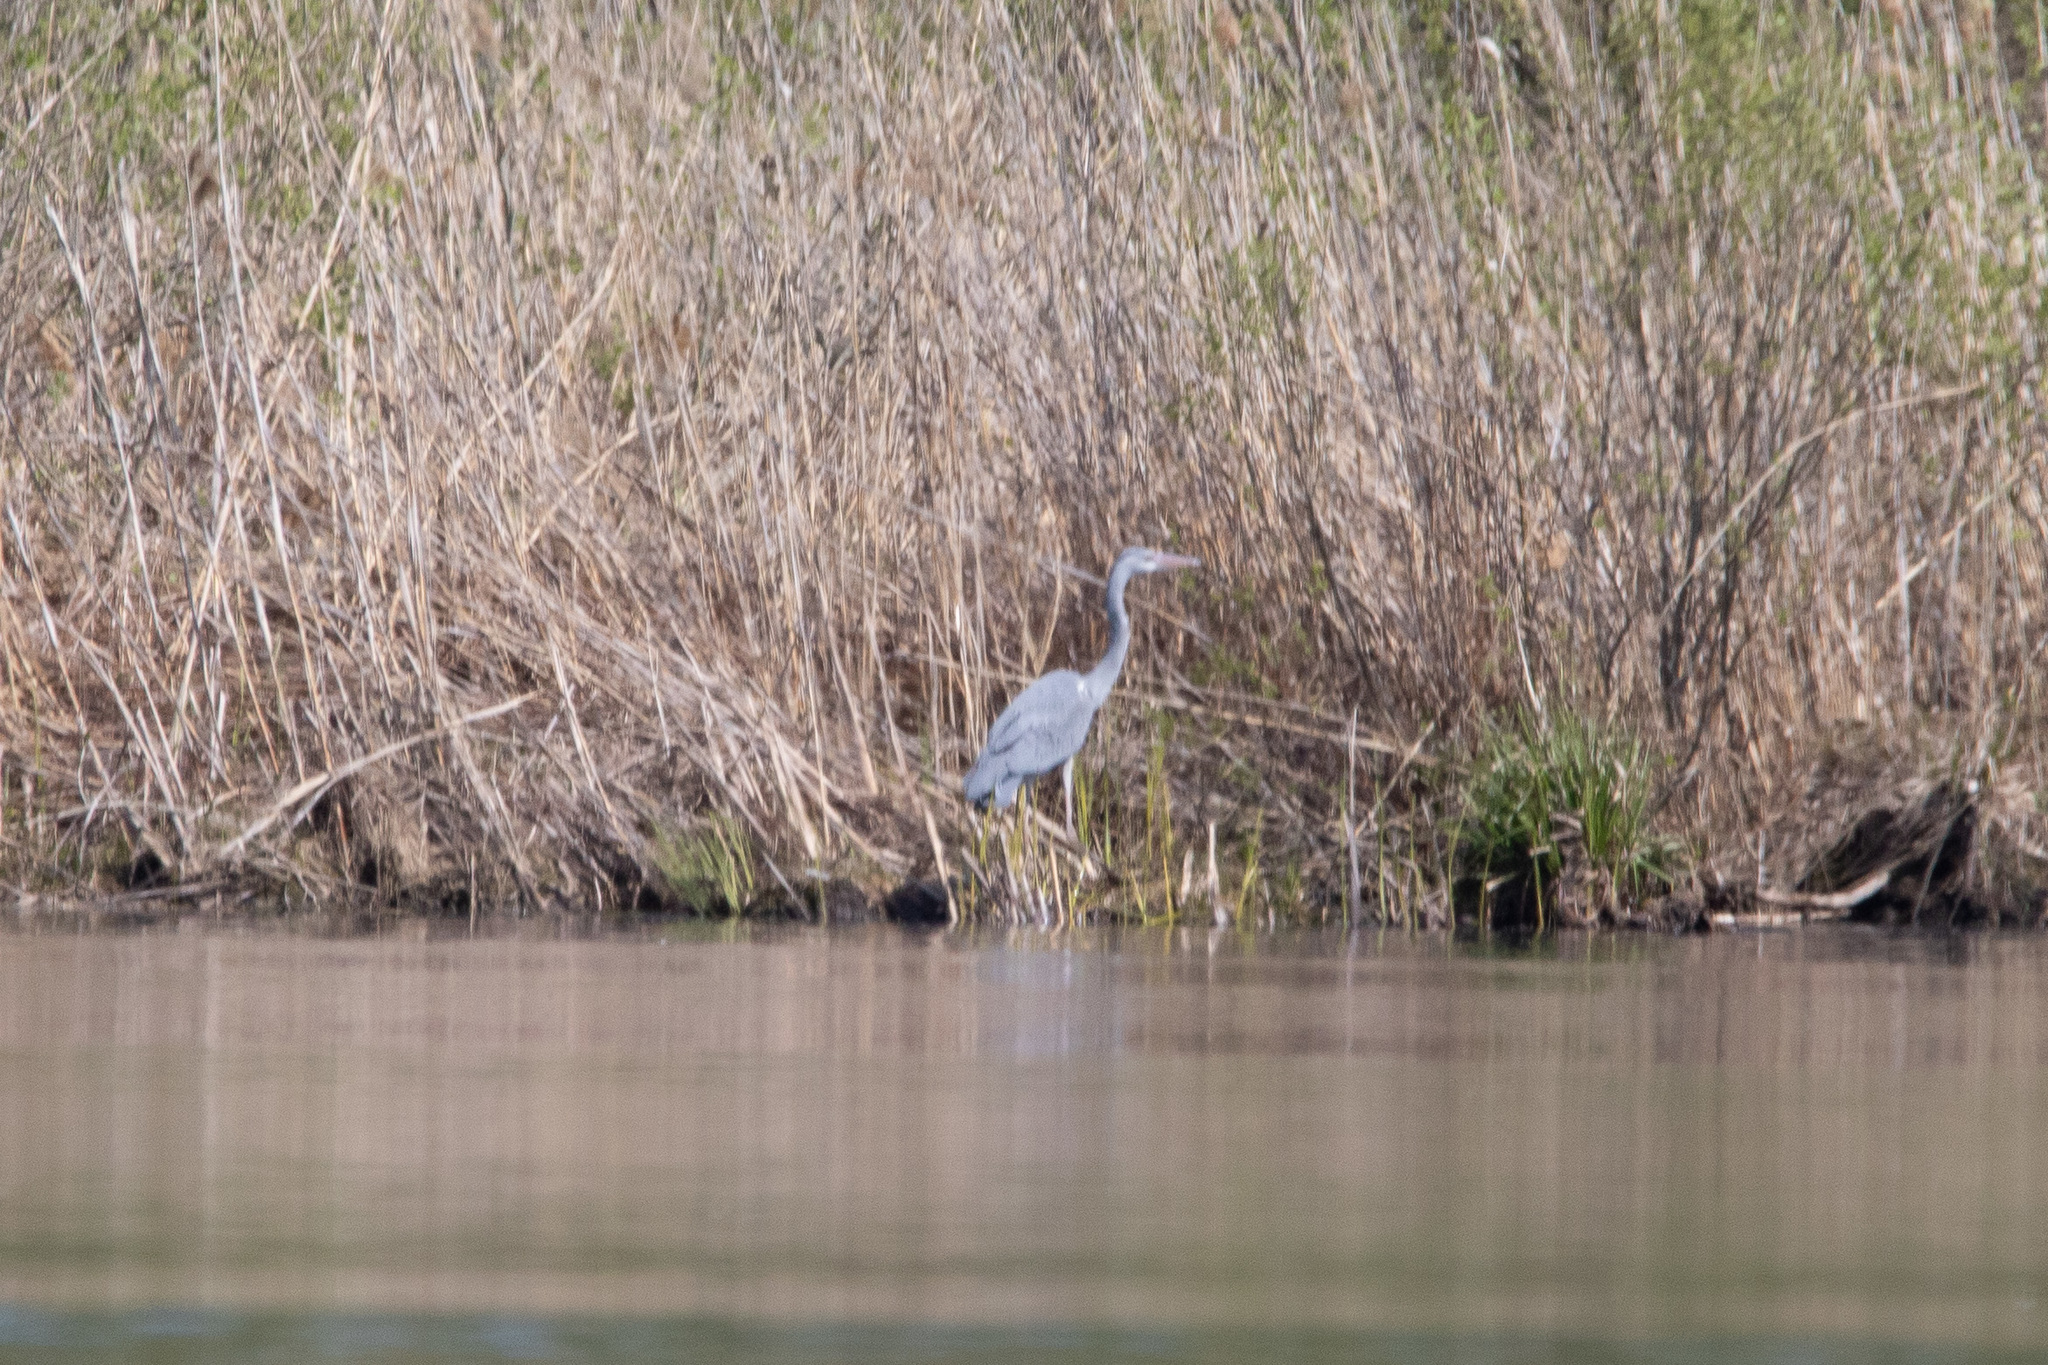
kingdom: Animalia
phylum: Chordata
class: Aves
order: Pelecaniformes
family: Ardeidae
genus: Ardea
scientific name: Ardea cinerea
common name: Grey heron
